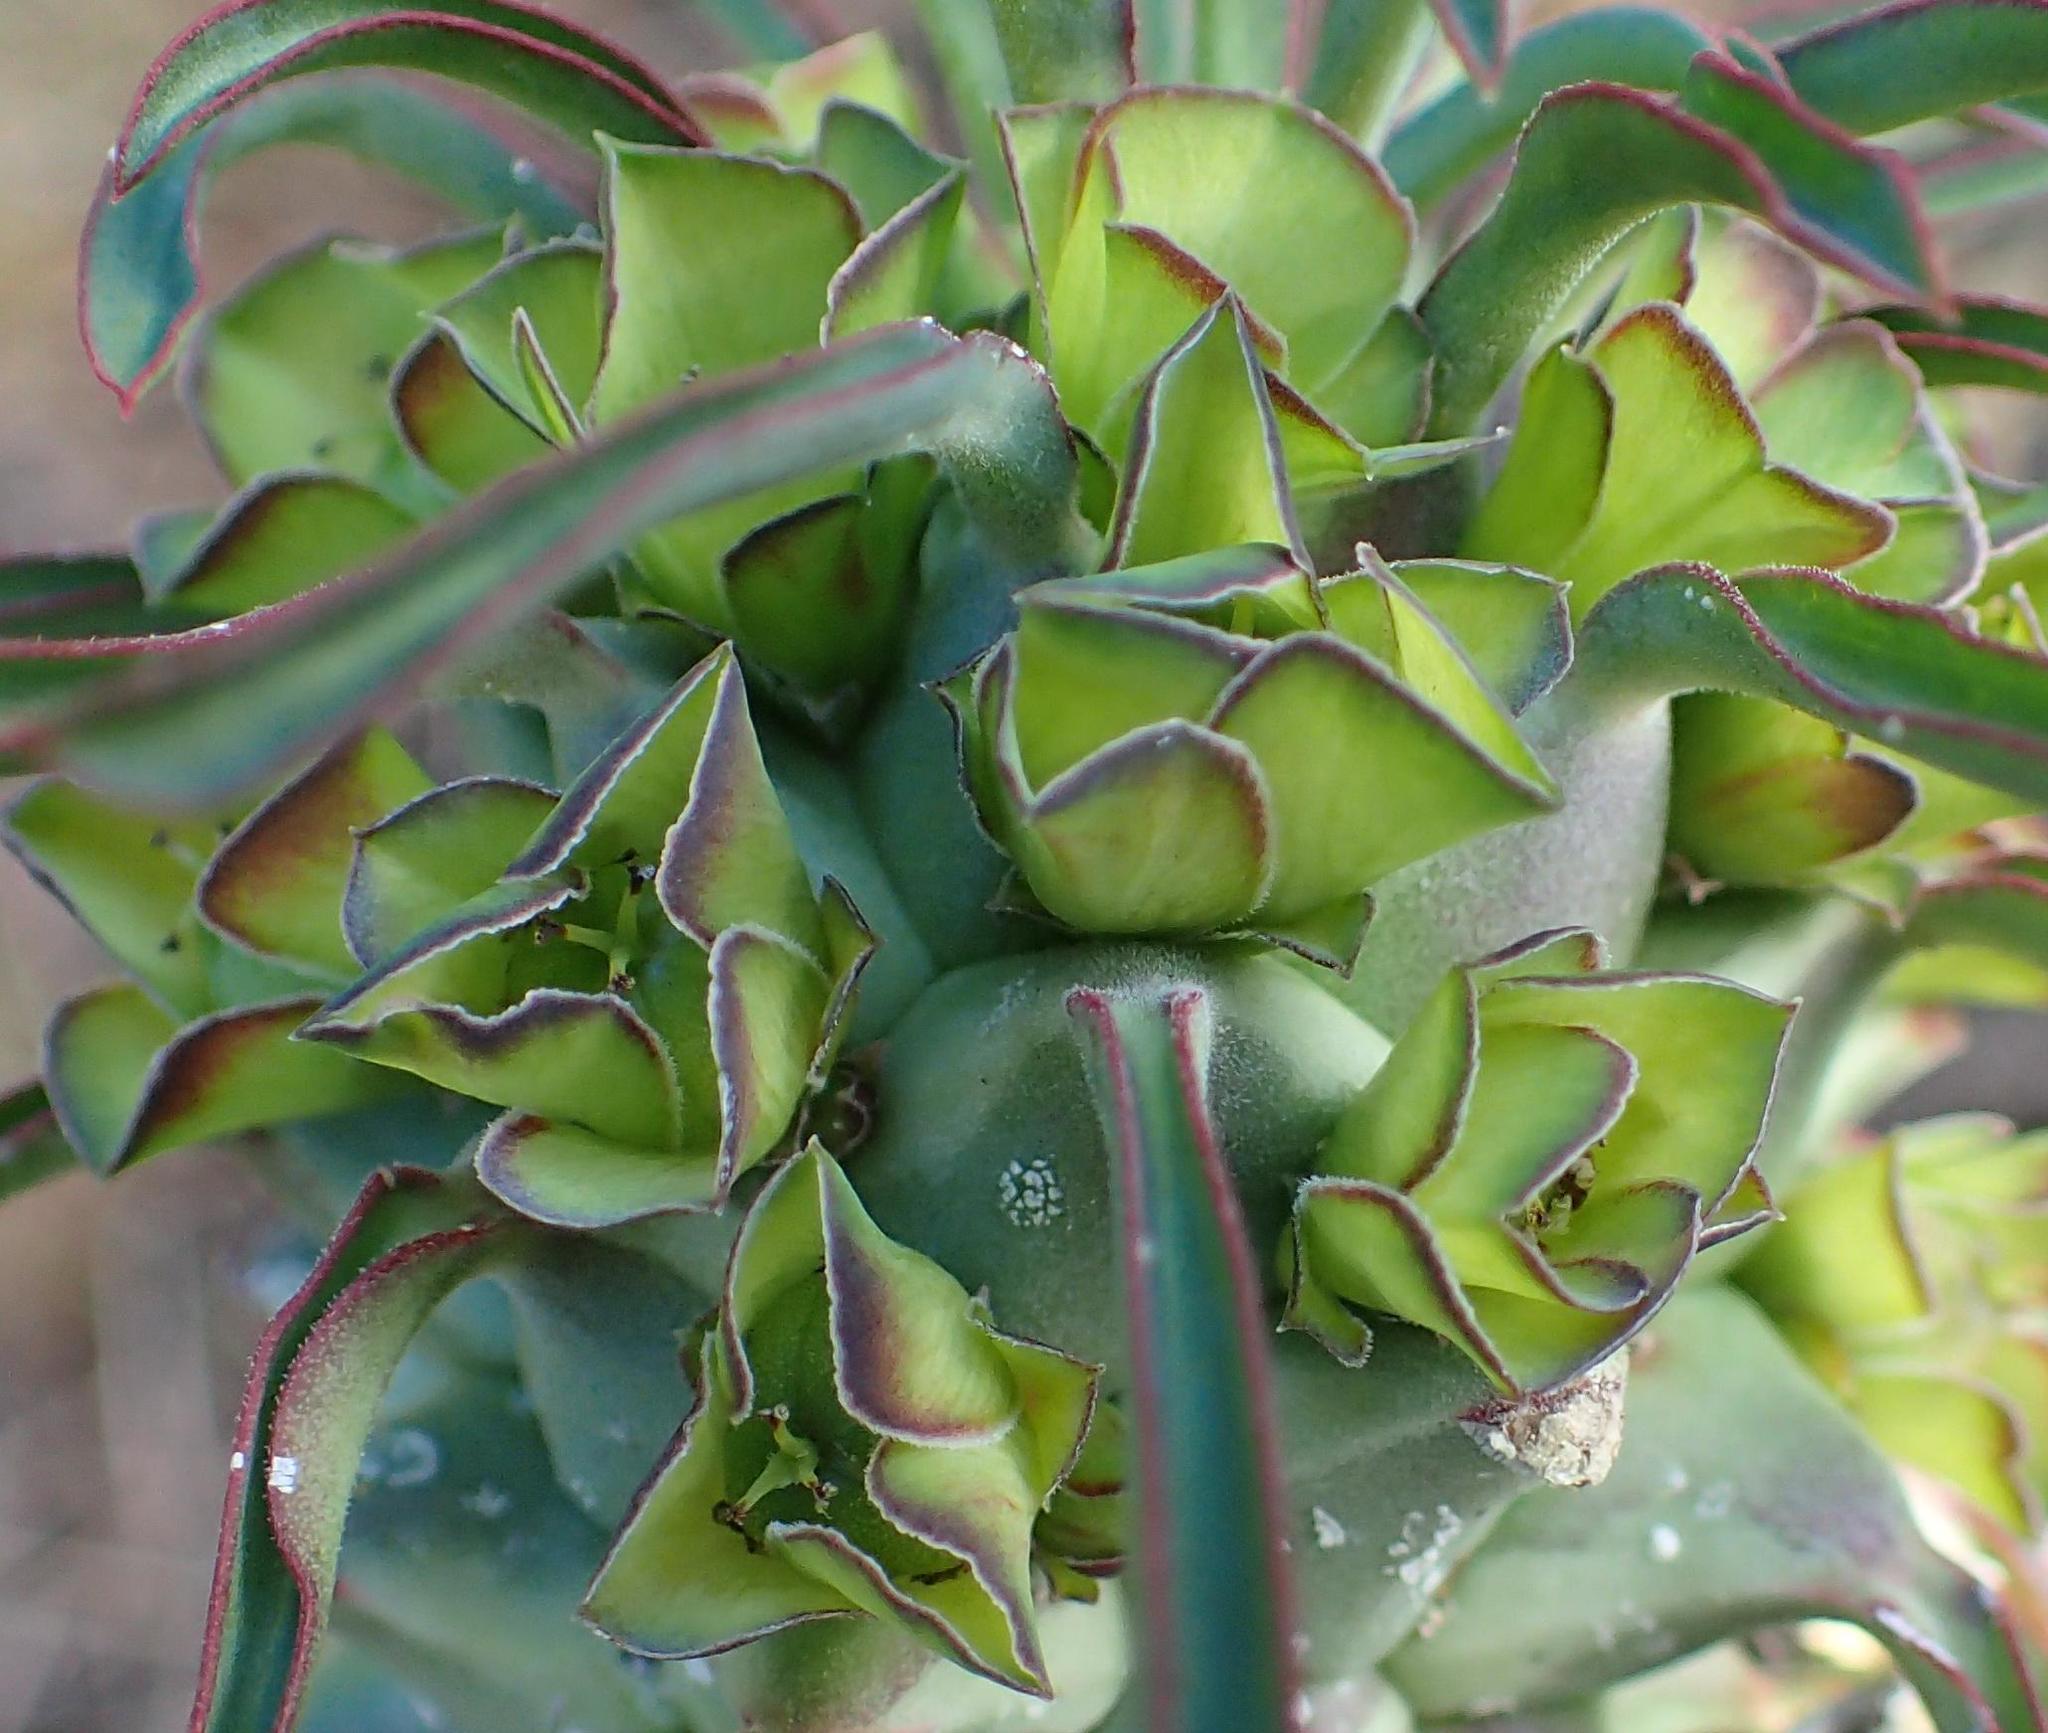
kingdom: Plantae
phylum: Tracheophyta
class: Magnoliopsida
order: Malpighiales
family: Euphorbiaceae
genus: Euphorbia
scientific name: Euphorbia clandestina
